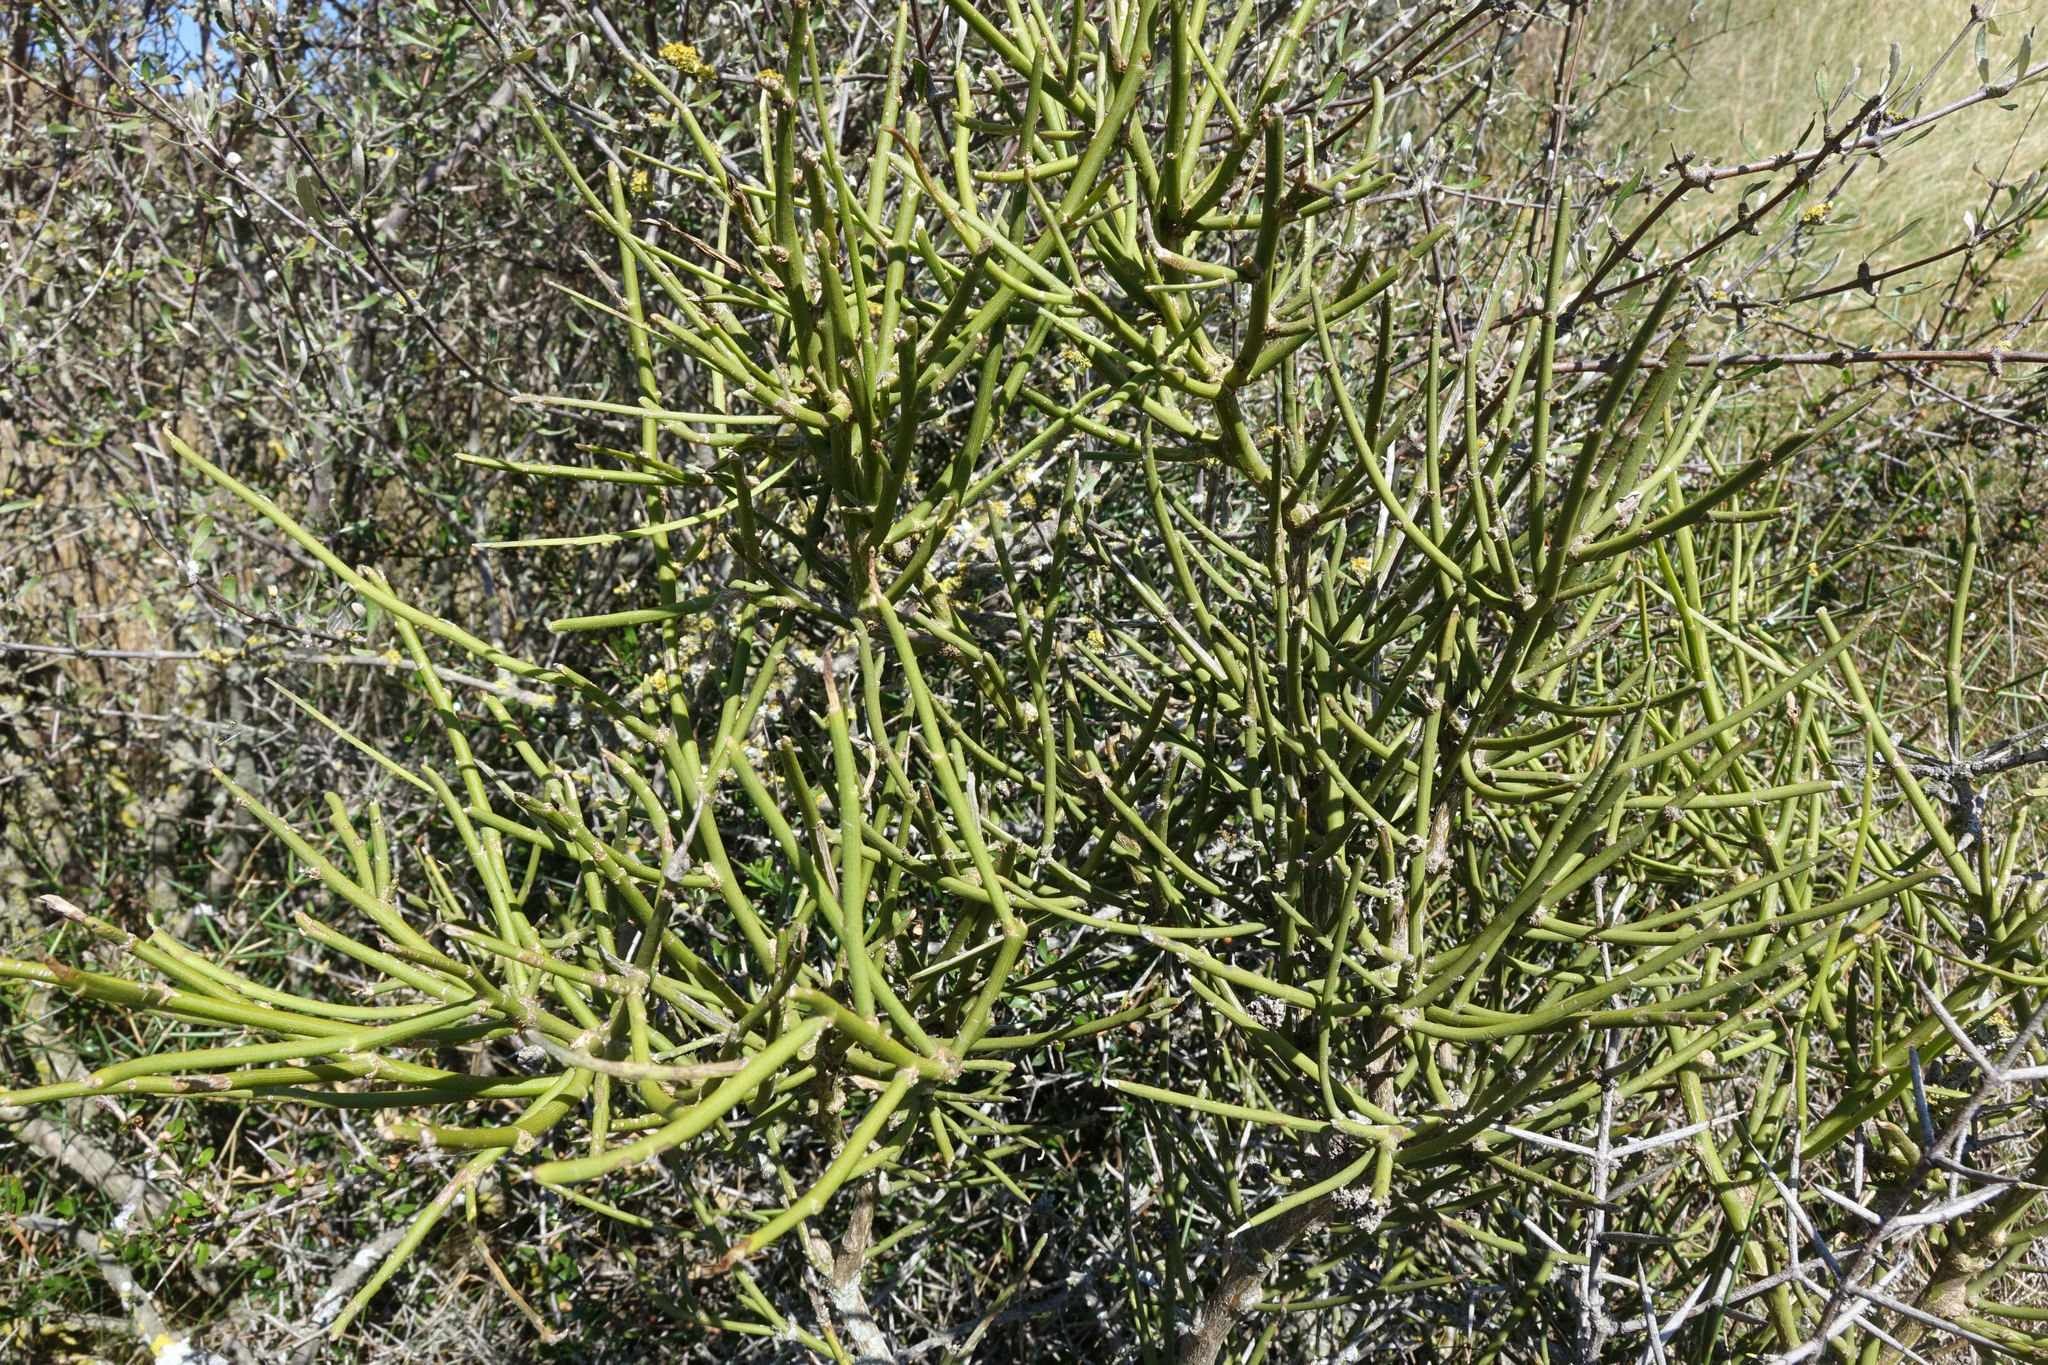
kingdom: Plantae
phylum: Tracheophyta
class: Magnoliopsida
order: Fabales
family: Fabaceae
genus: Carmichaelia
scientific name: Carmichaelia petriei
